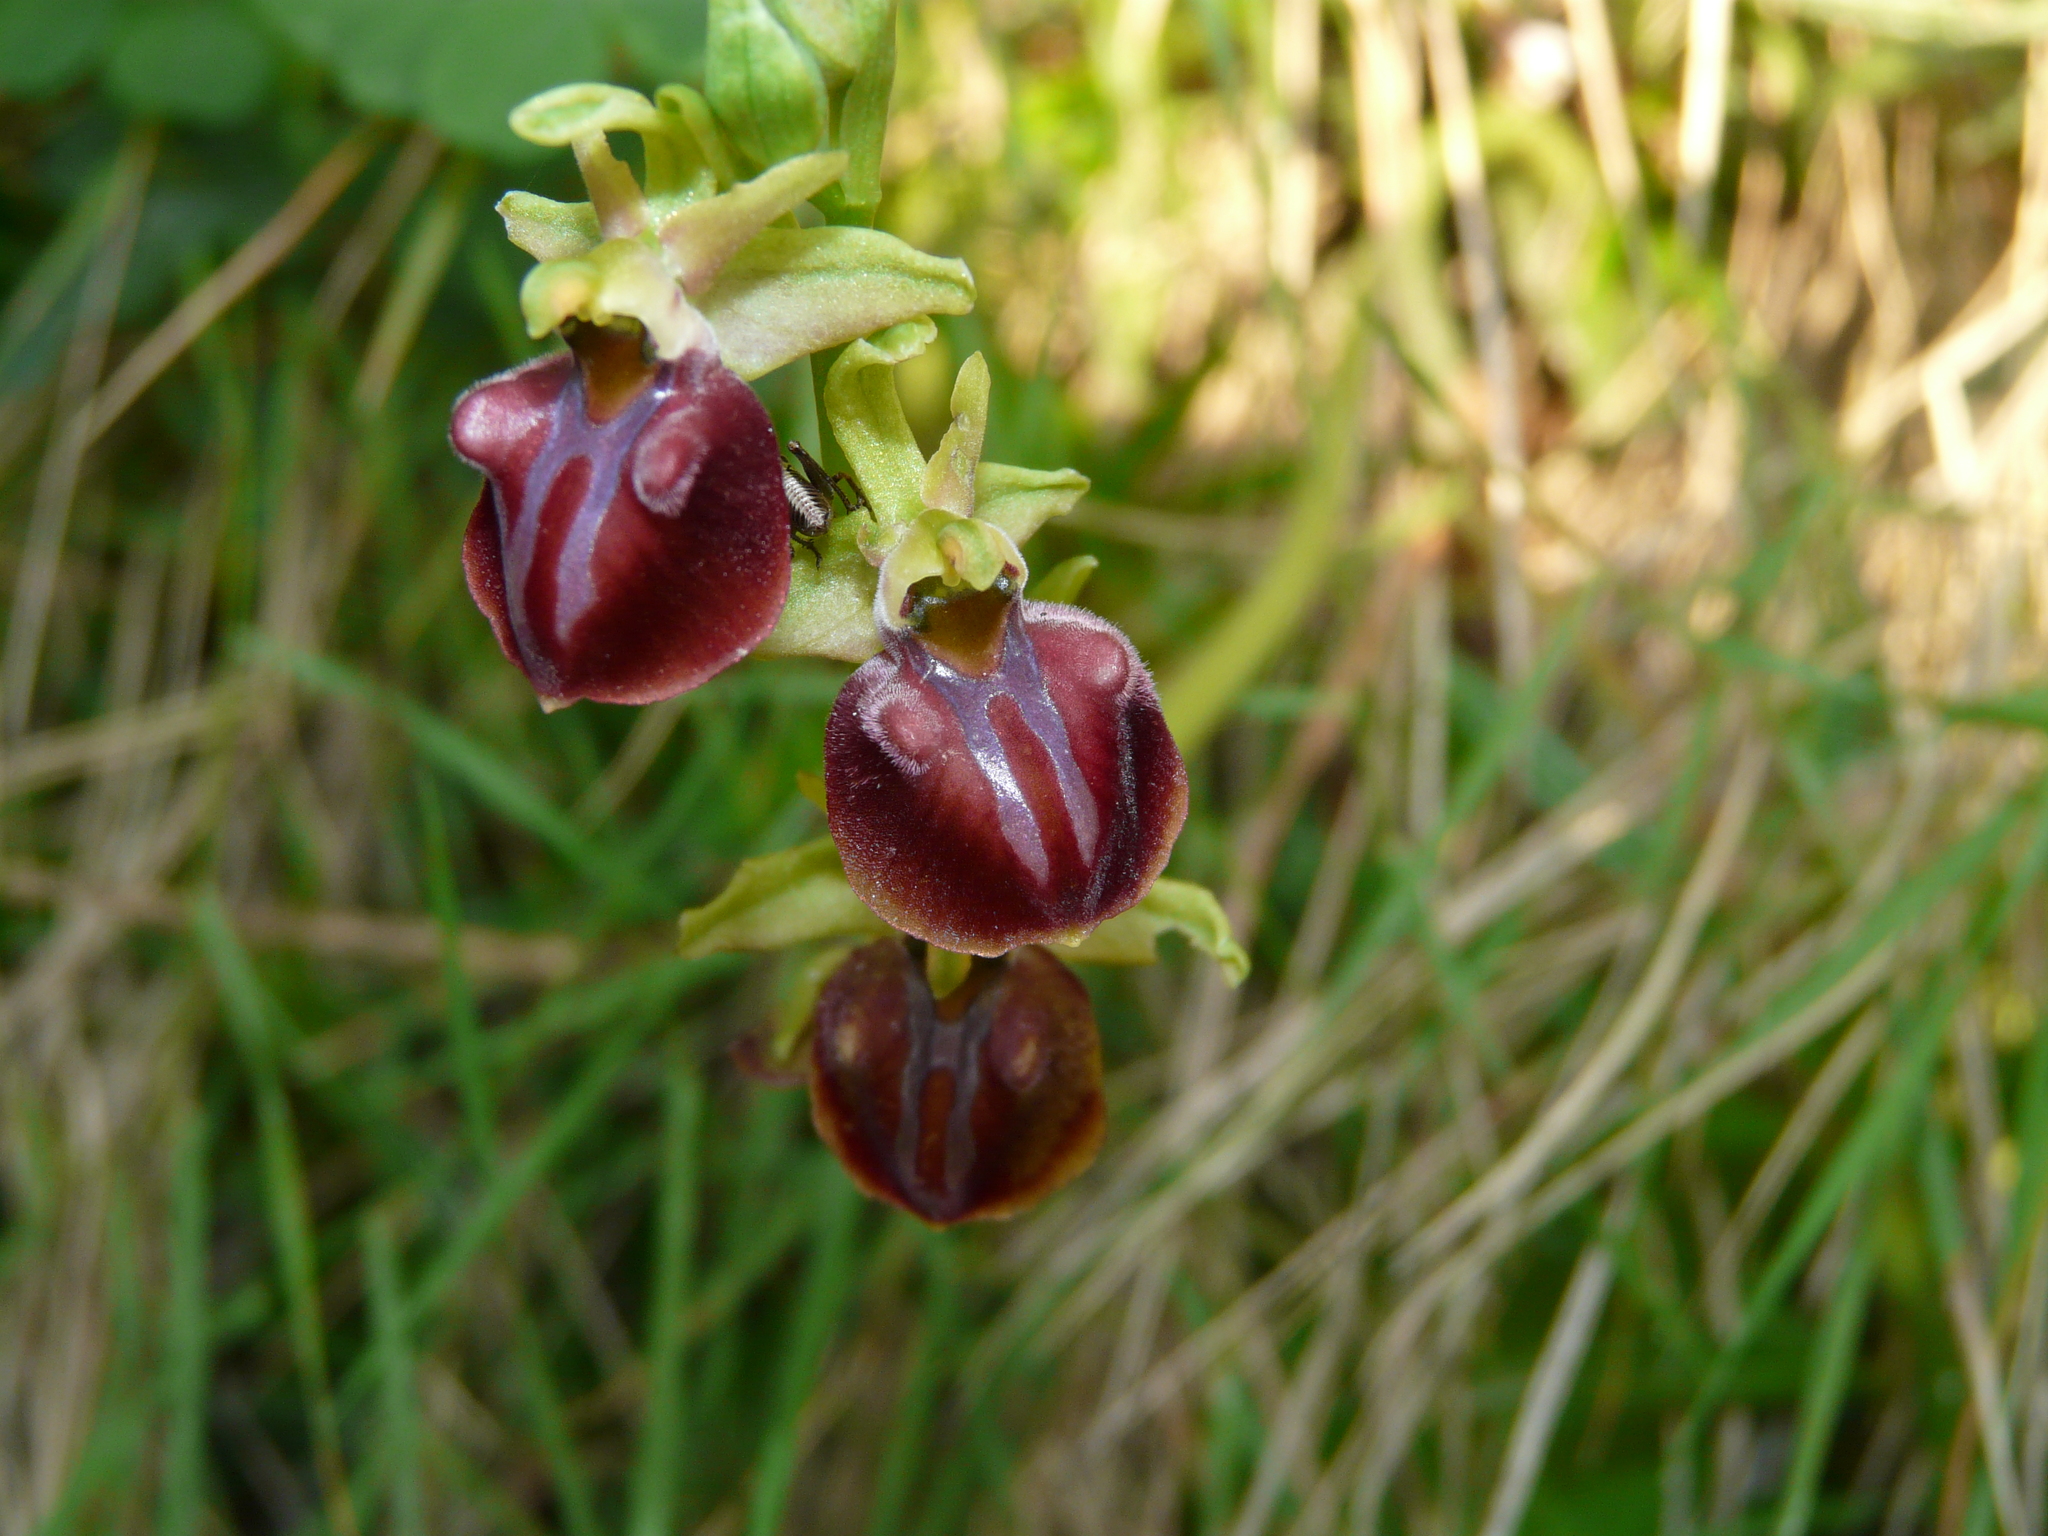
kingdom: Plantae
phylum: Tracheophyta
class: Liliopsida
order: Asparagales
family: Orchidaceae
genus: Ophrys
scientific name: Ophrys sphegodes
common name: Early spider-orchid
